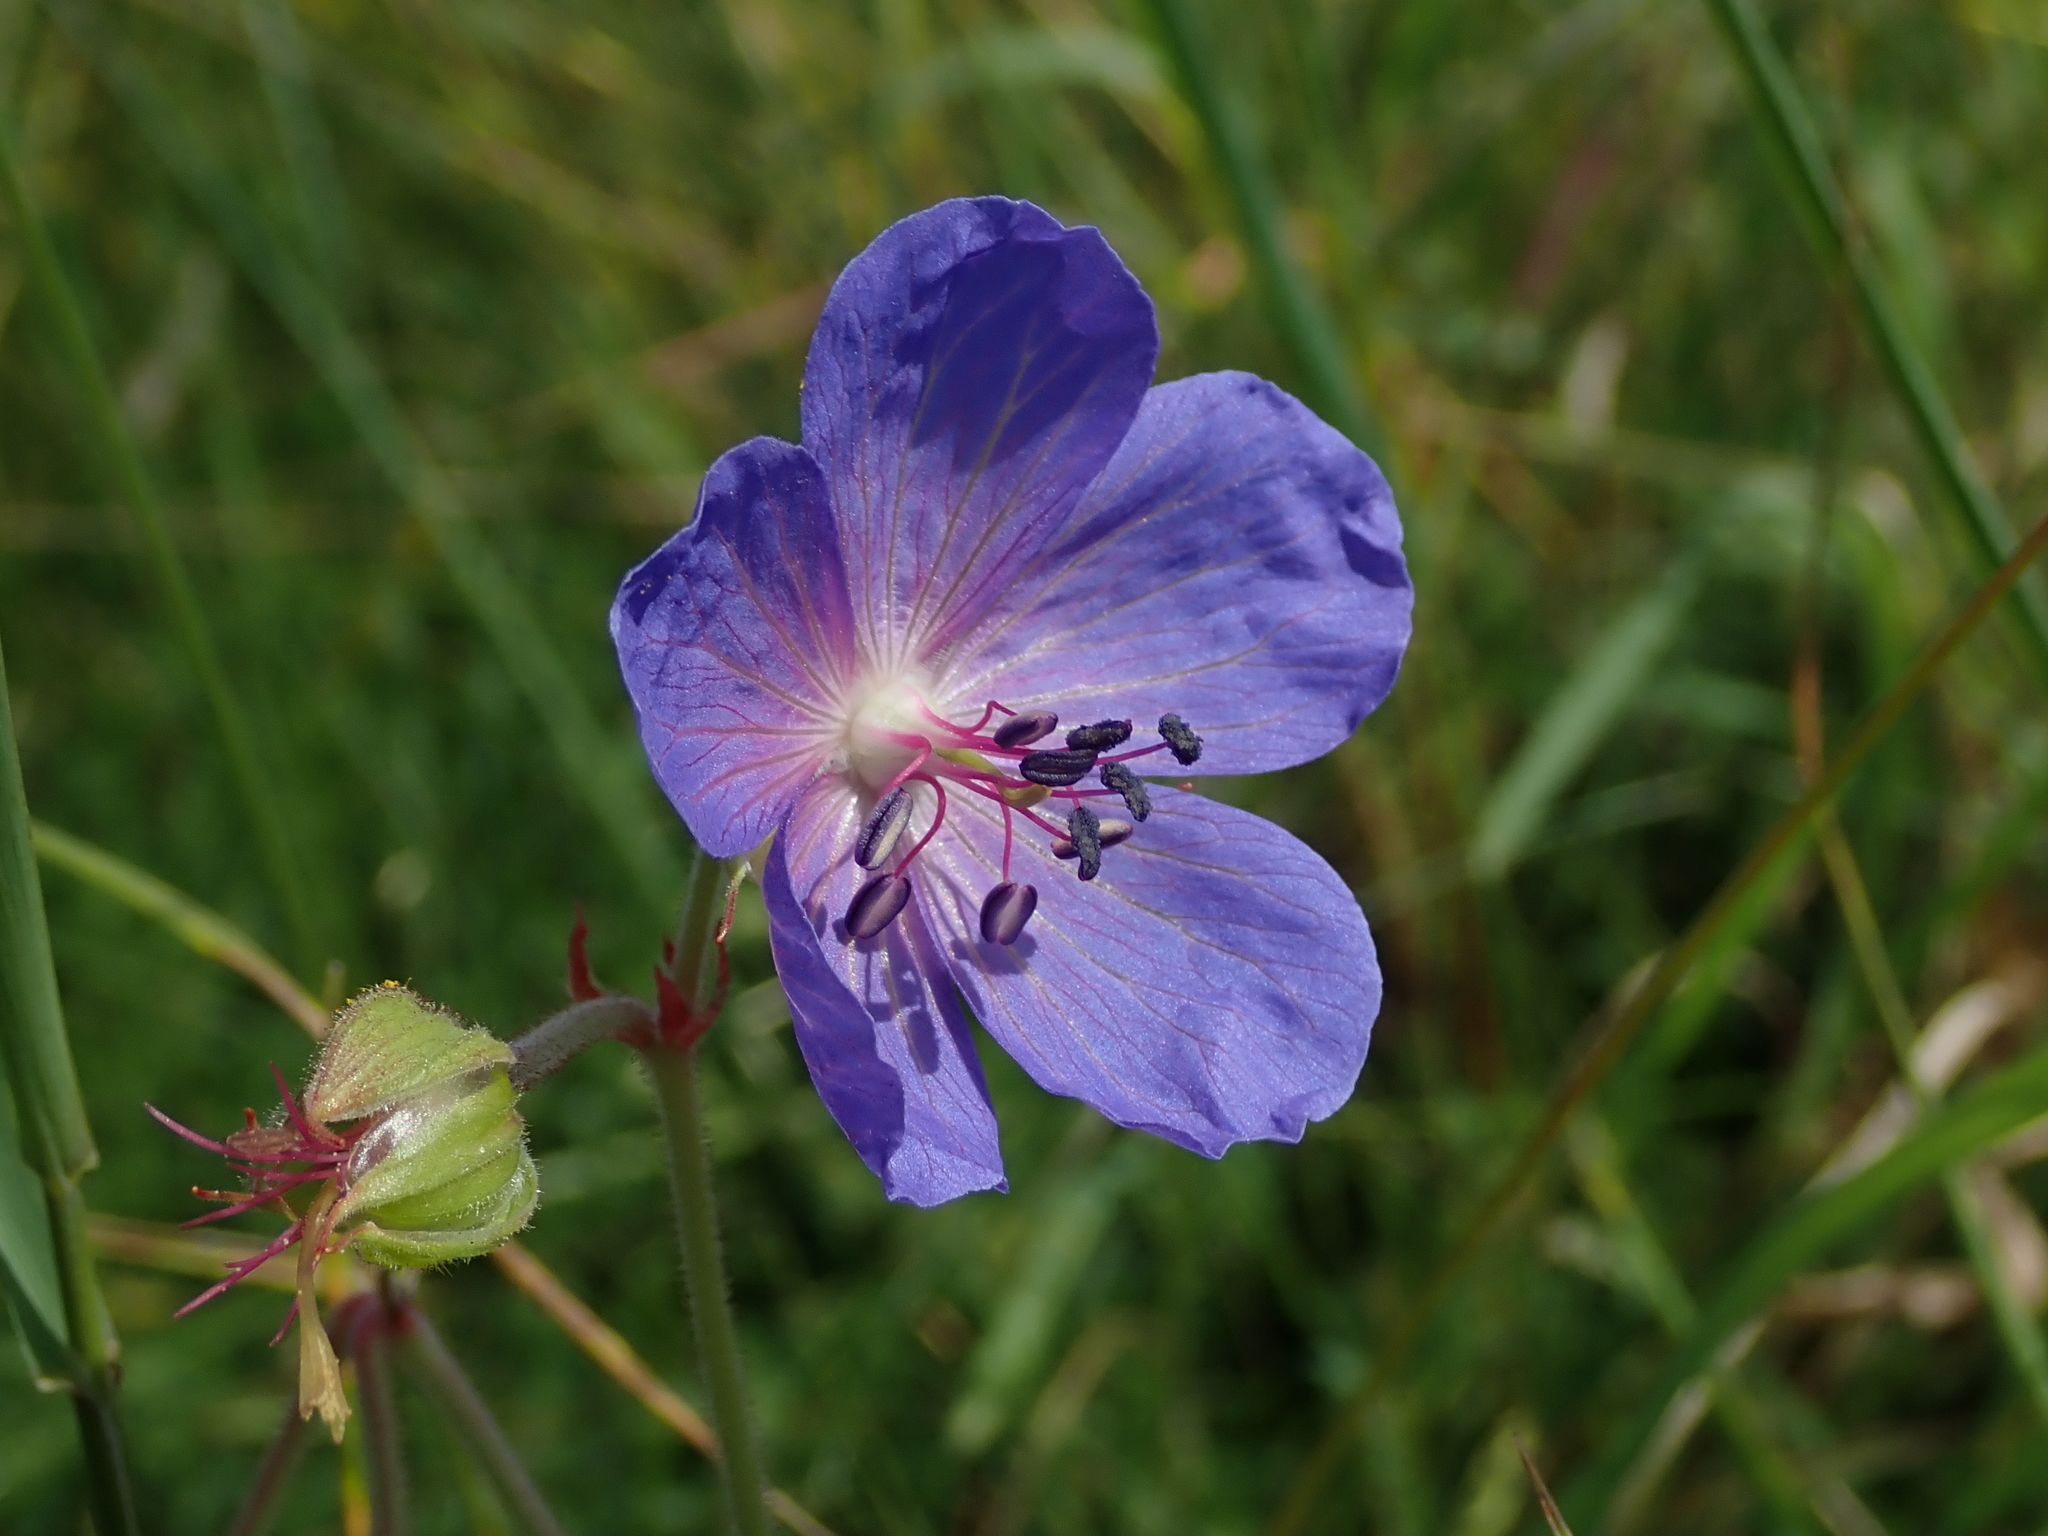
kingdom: Plantae
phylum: Tracheophyta
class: Magnoliopsida
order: Geraniales
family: Geraniaceae
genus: Geranium
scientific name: Geranium pratense
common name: Meadow crane's-bill
